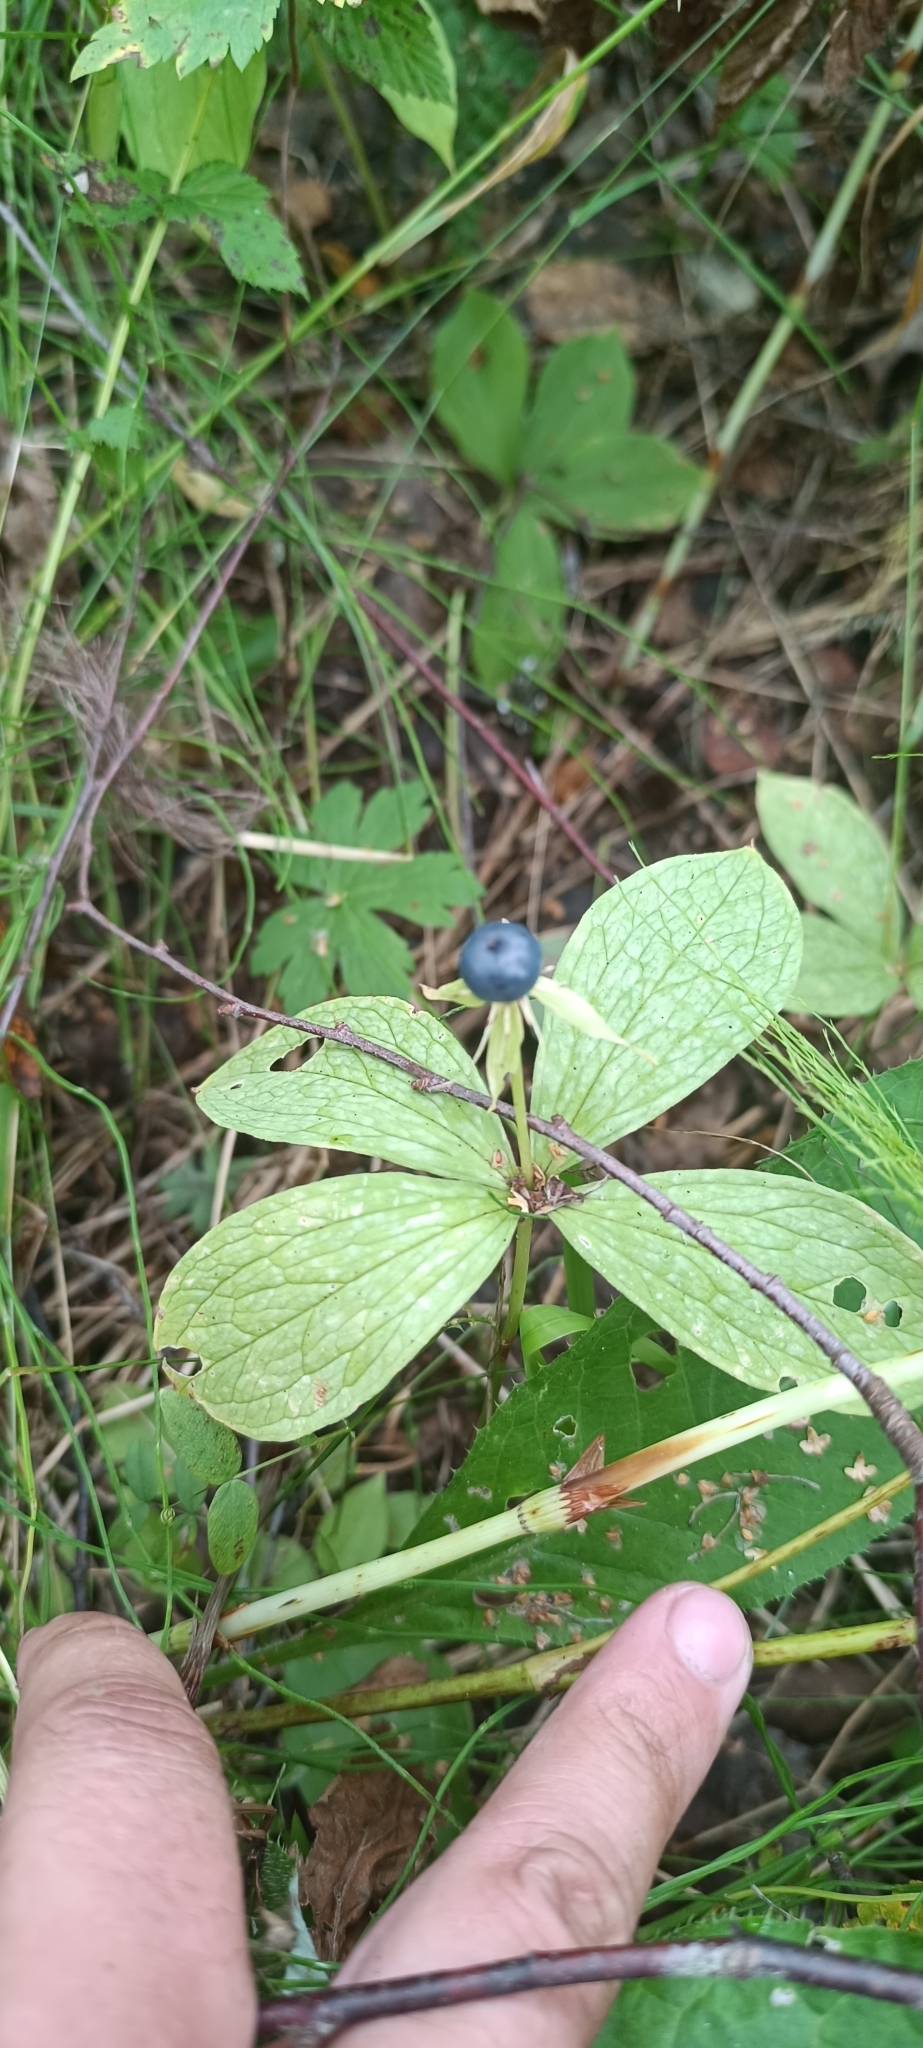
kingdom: Plantae
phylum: Tracheophyta
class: Liliopsida
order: Liliales
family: Melanthiaceae
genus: Paris
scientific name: Paris quadrifolia
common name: Herb-paris
